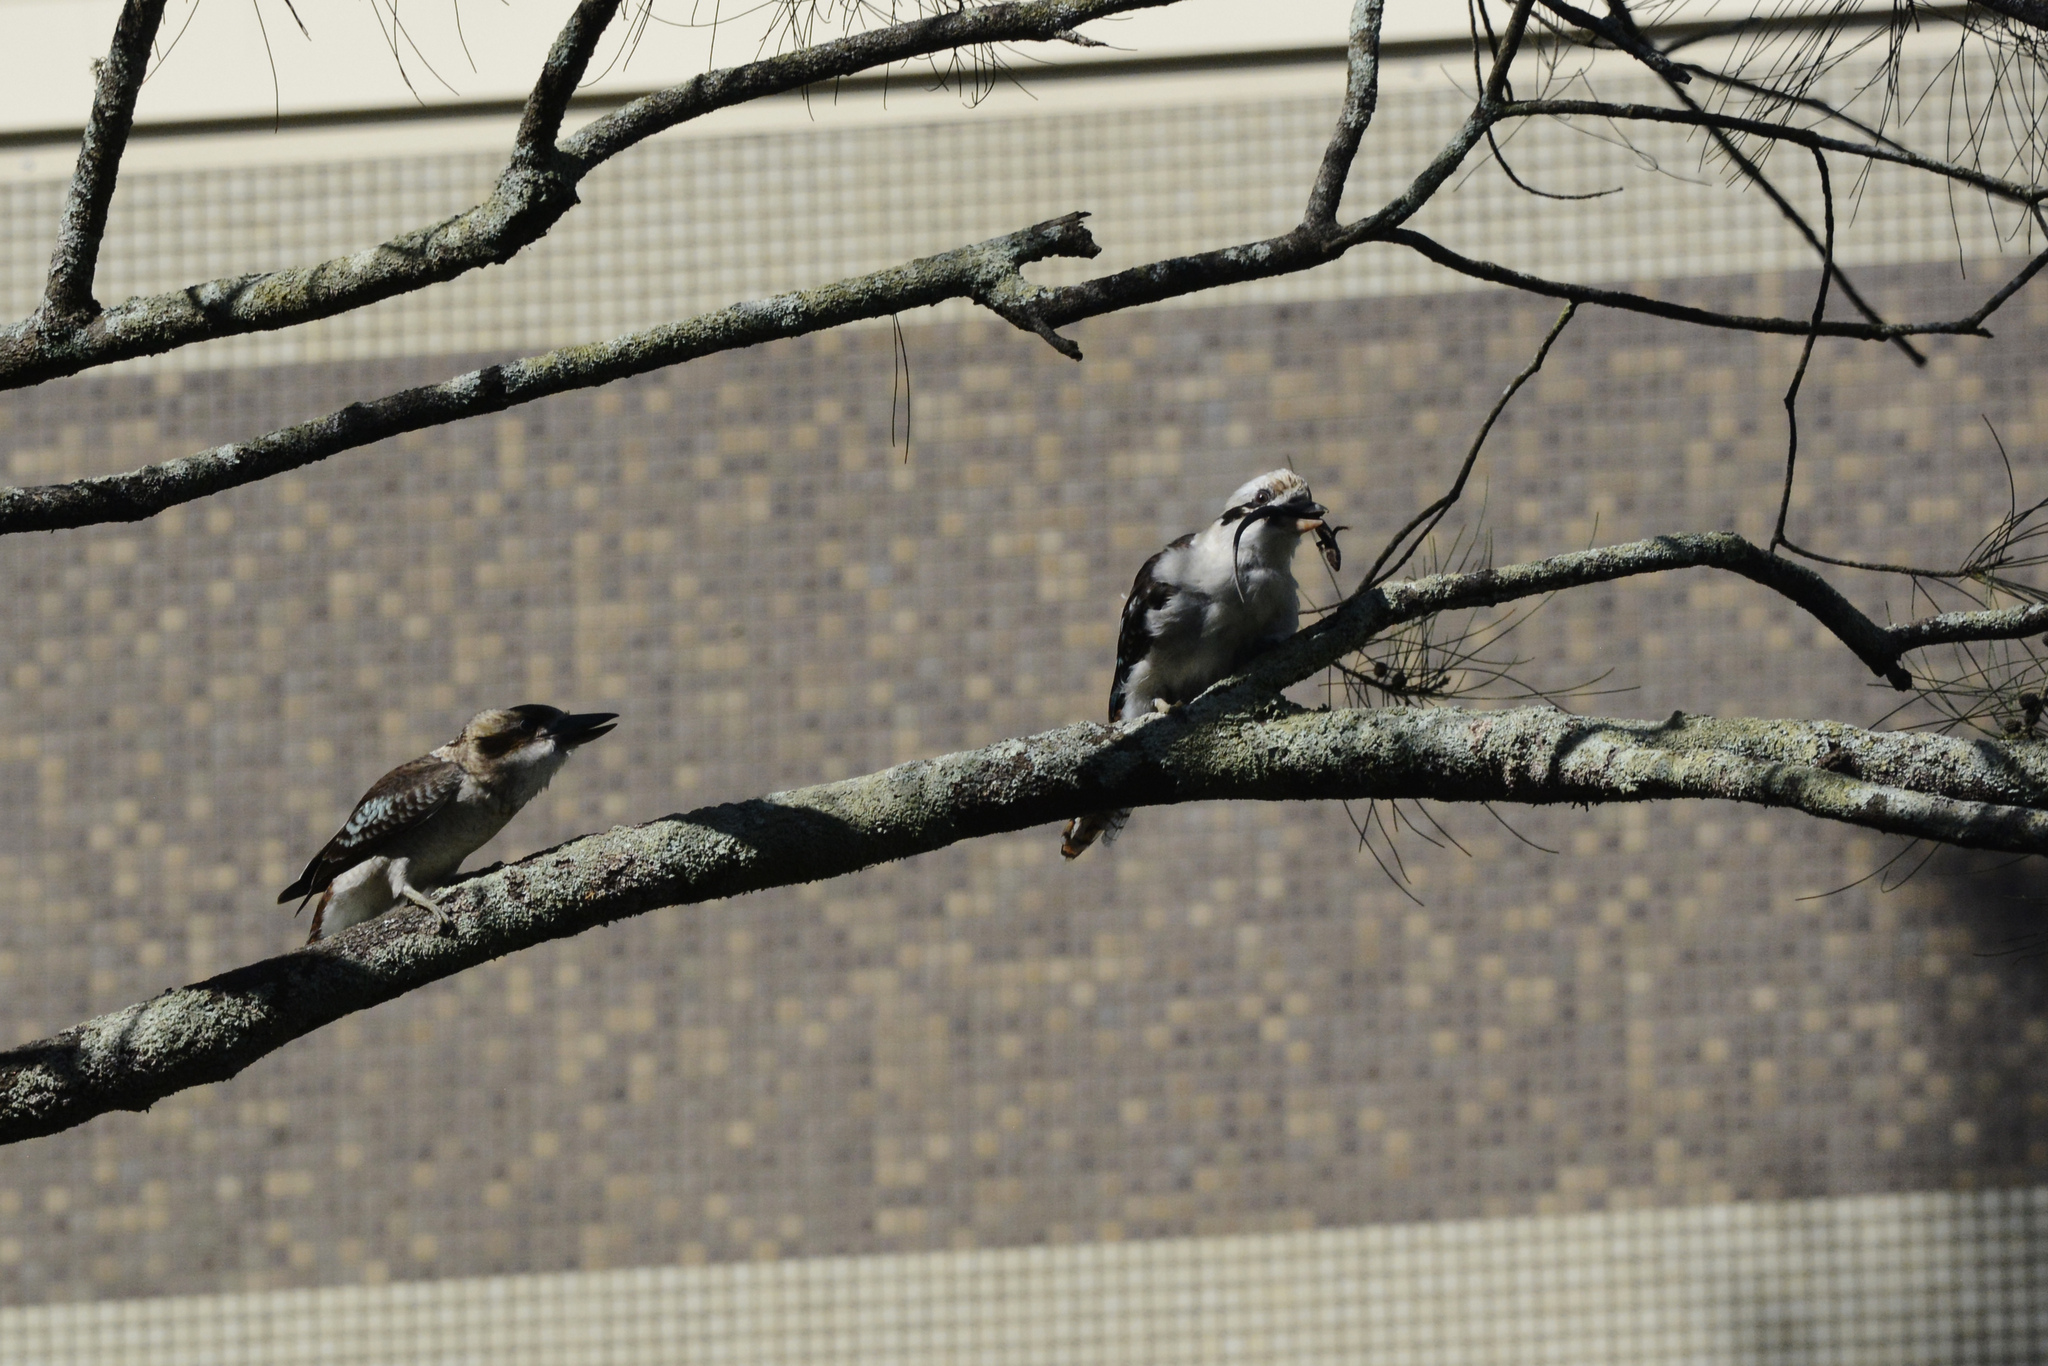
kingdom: Animalia
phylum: Chordata
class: Aves
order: Coraciiformes
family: Alcedinidae
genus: Dacelo
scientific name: Dacelo novaeguineae
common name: Laughing kookaburra
